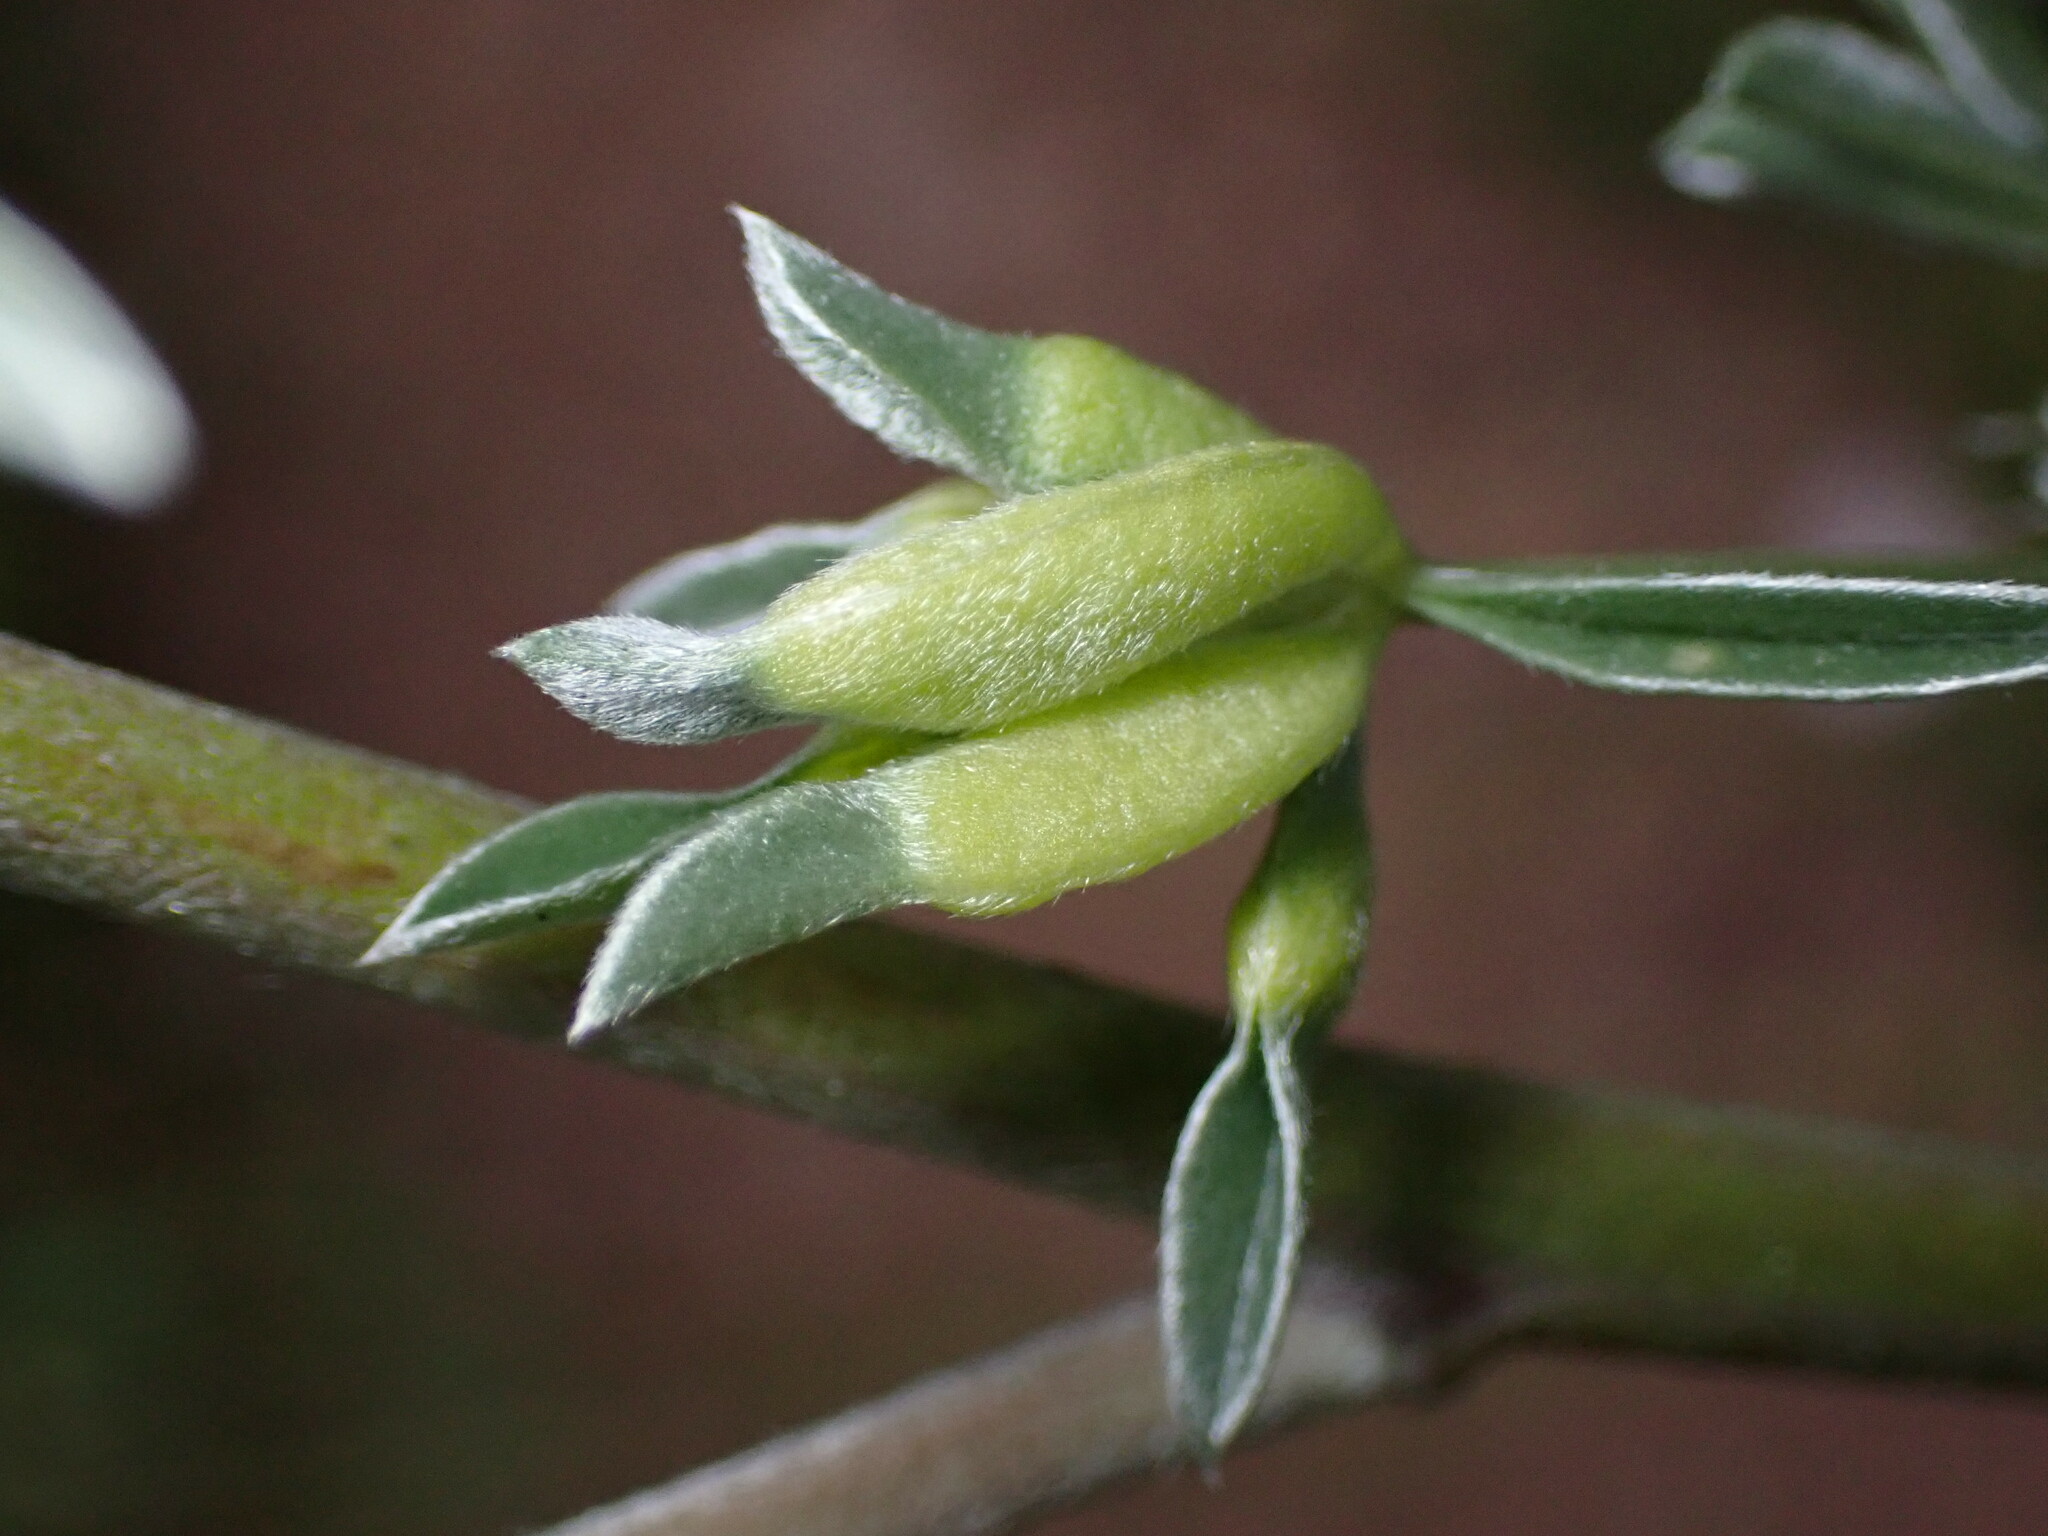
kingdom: Animalia
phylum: Arthropoda
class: Insecta
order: Diptera
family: Cecidomyiidae
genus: Dasineura
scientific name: Dasineura lupinorum
